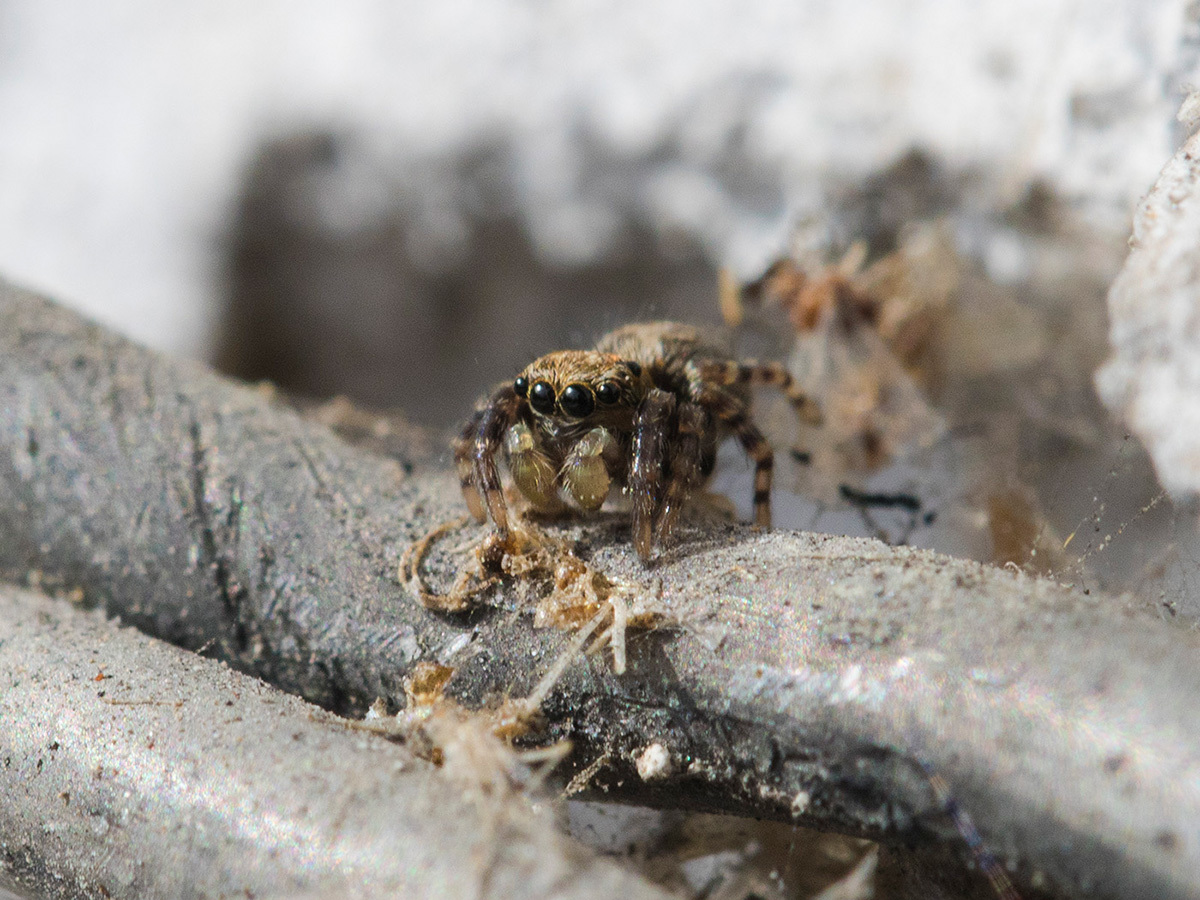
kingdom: Animalia
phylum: Arthropoda
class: Arachnida
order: Araneae
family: Salticidae
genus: Pseudeuophrys
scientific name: Pseudeuophrys obsoleta
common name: Whelk-shell jumper
